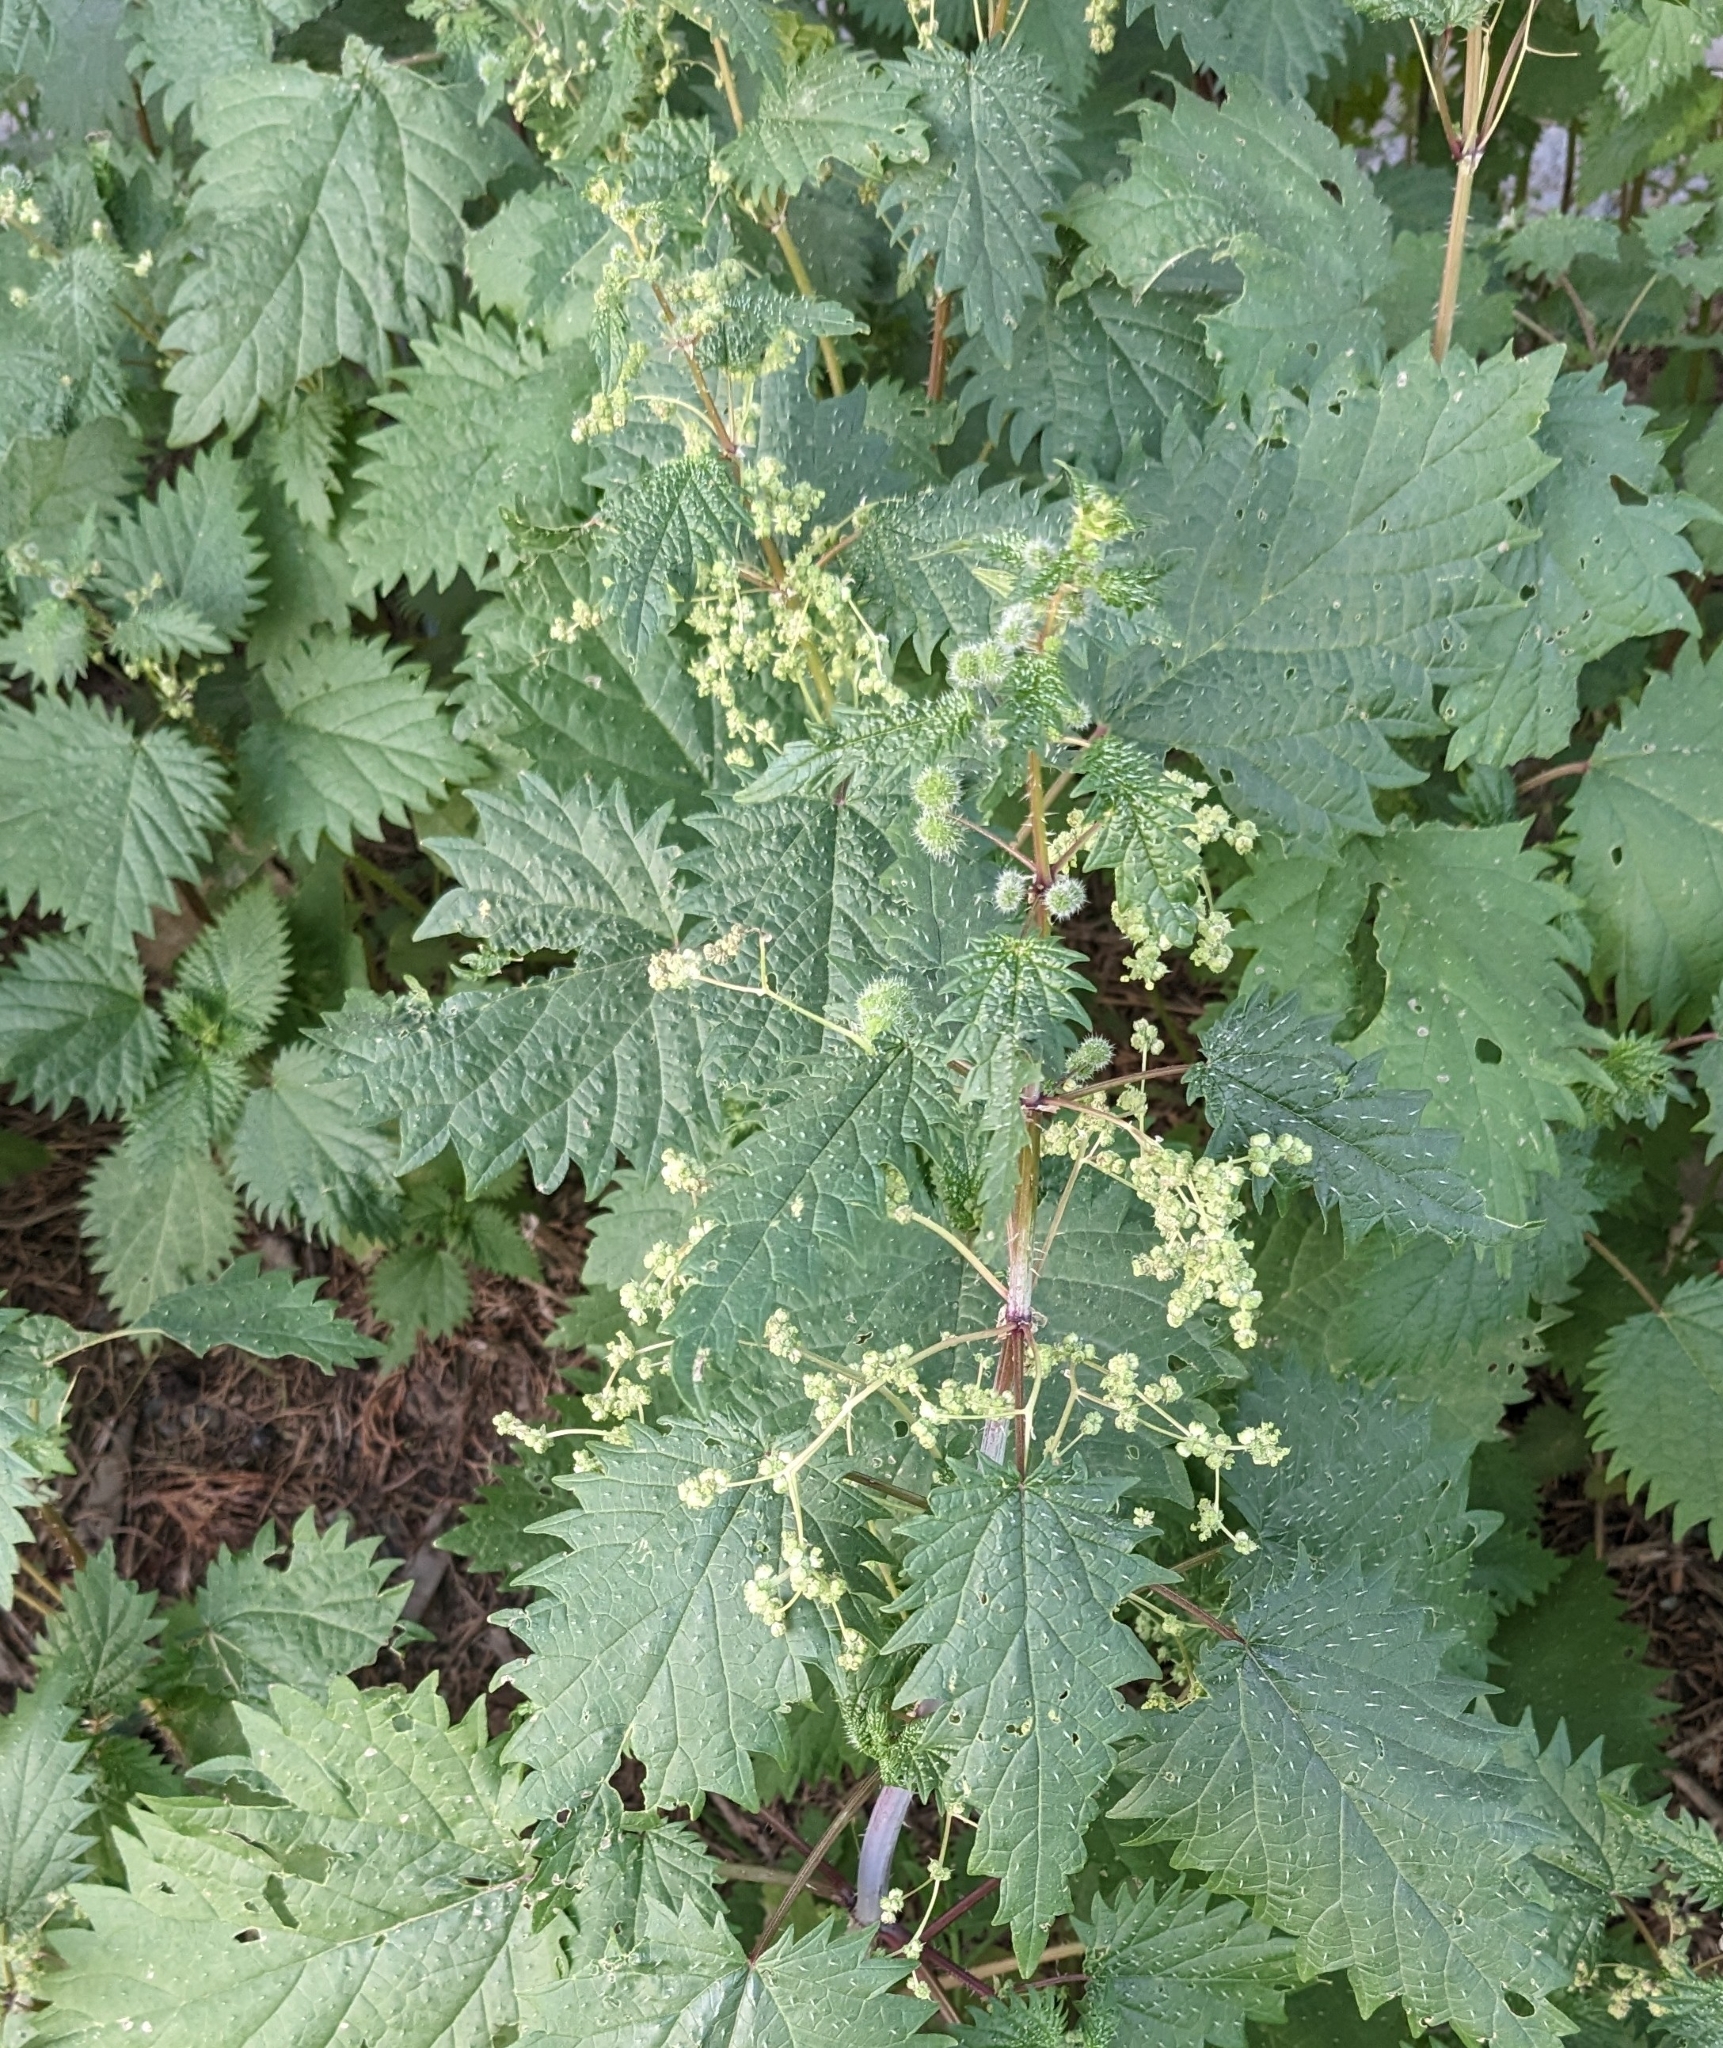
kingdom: Plantae
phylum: Tracheophyta
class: Magnoliopsida
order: Rosales
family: Urticaceae
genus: Urtica
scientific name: Urtica pilulifera
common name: Roman nettle
